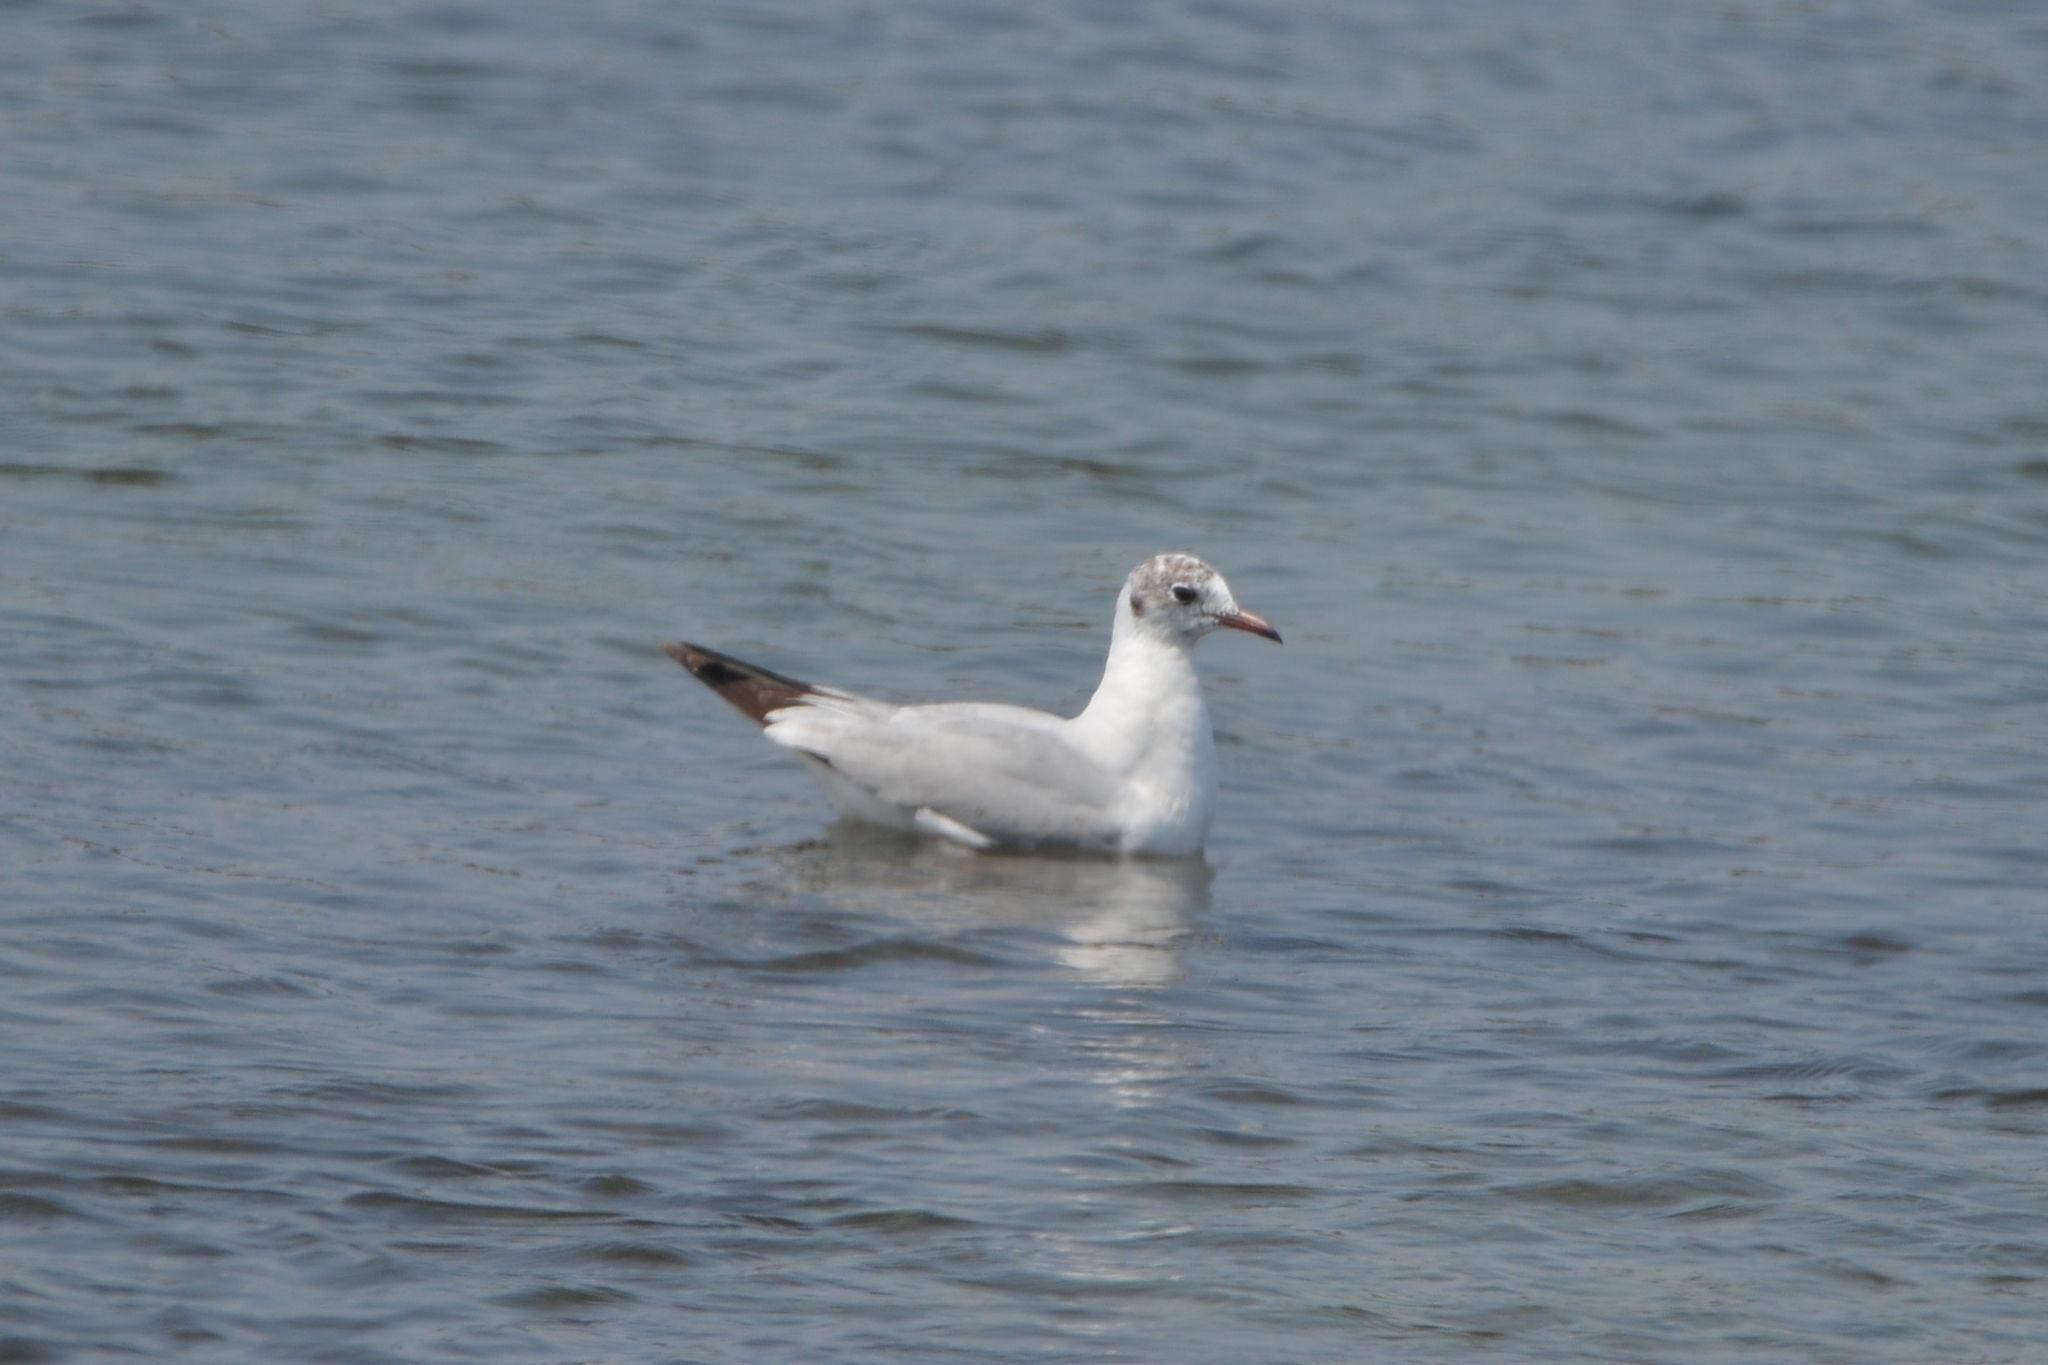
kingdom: Animalia
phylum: Chordata
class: Aves
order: Charadriiformes
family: Laridae
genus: Chroicocephalus
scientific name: Chroicocephalus ridibundus
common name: Black-headed gull
